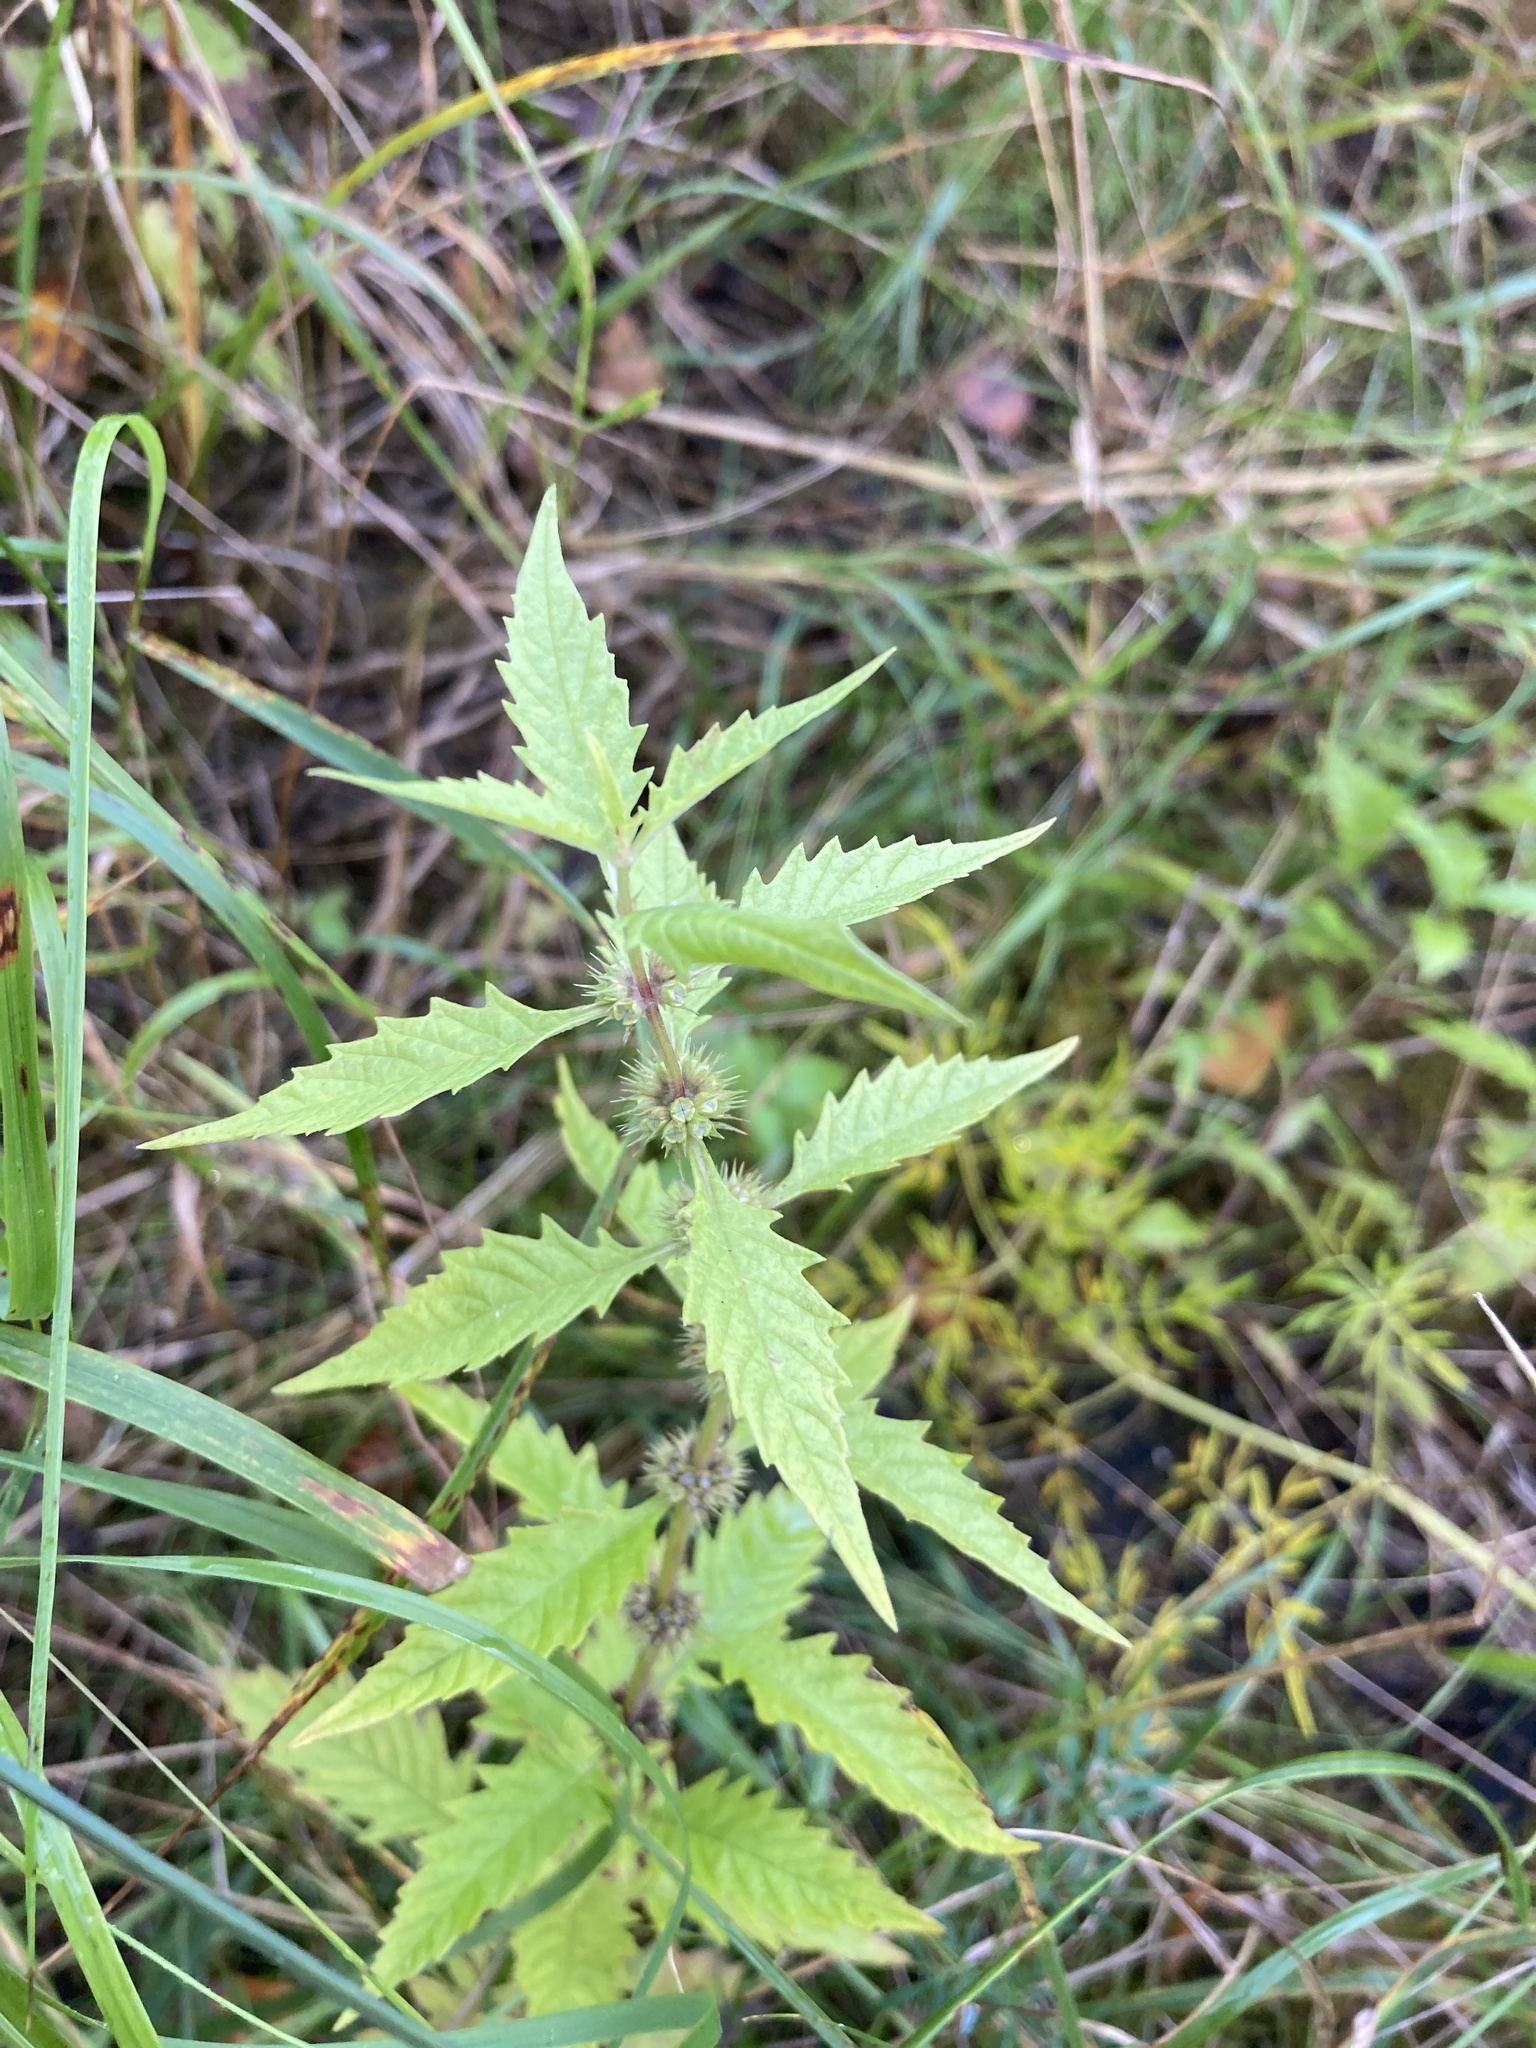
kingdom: Plantae
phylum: Tracheophyta
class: Magnoliopsida
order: Lamiales
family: Lamiaceae
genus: Lycopus
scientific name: Lycopus europaeus
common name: European bugleweed
